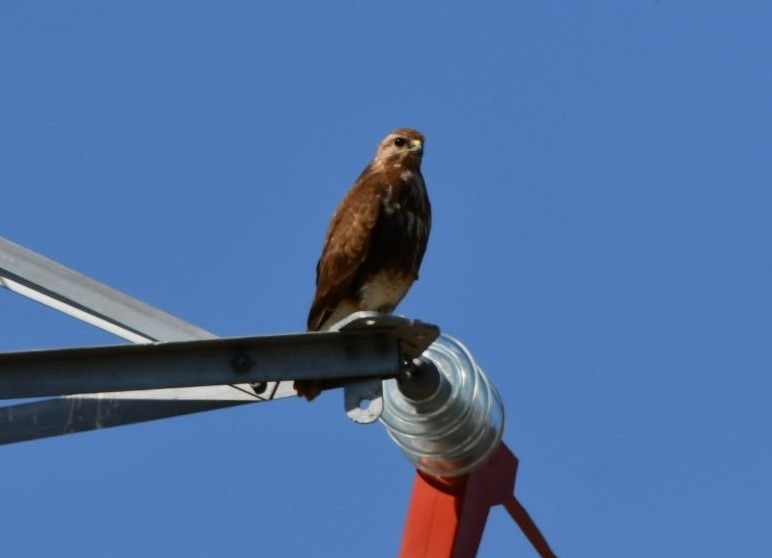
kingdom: Animalia
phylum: Chordata
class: Aves
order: Accipitriformes
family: Accipitridae
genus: Buteo
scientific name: Buteo buteo
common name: Common buzzard
